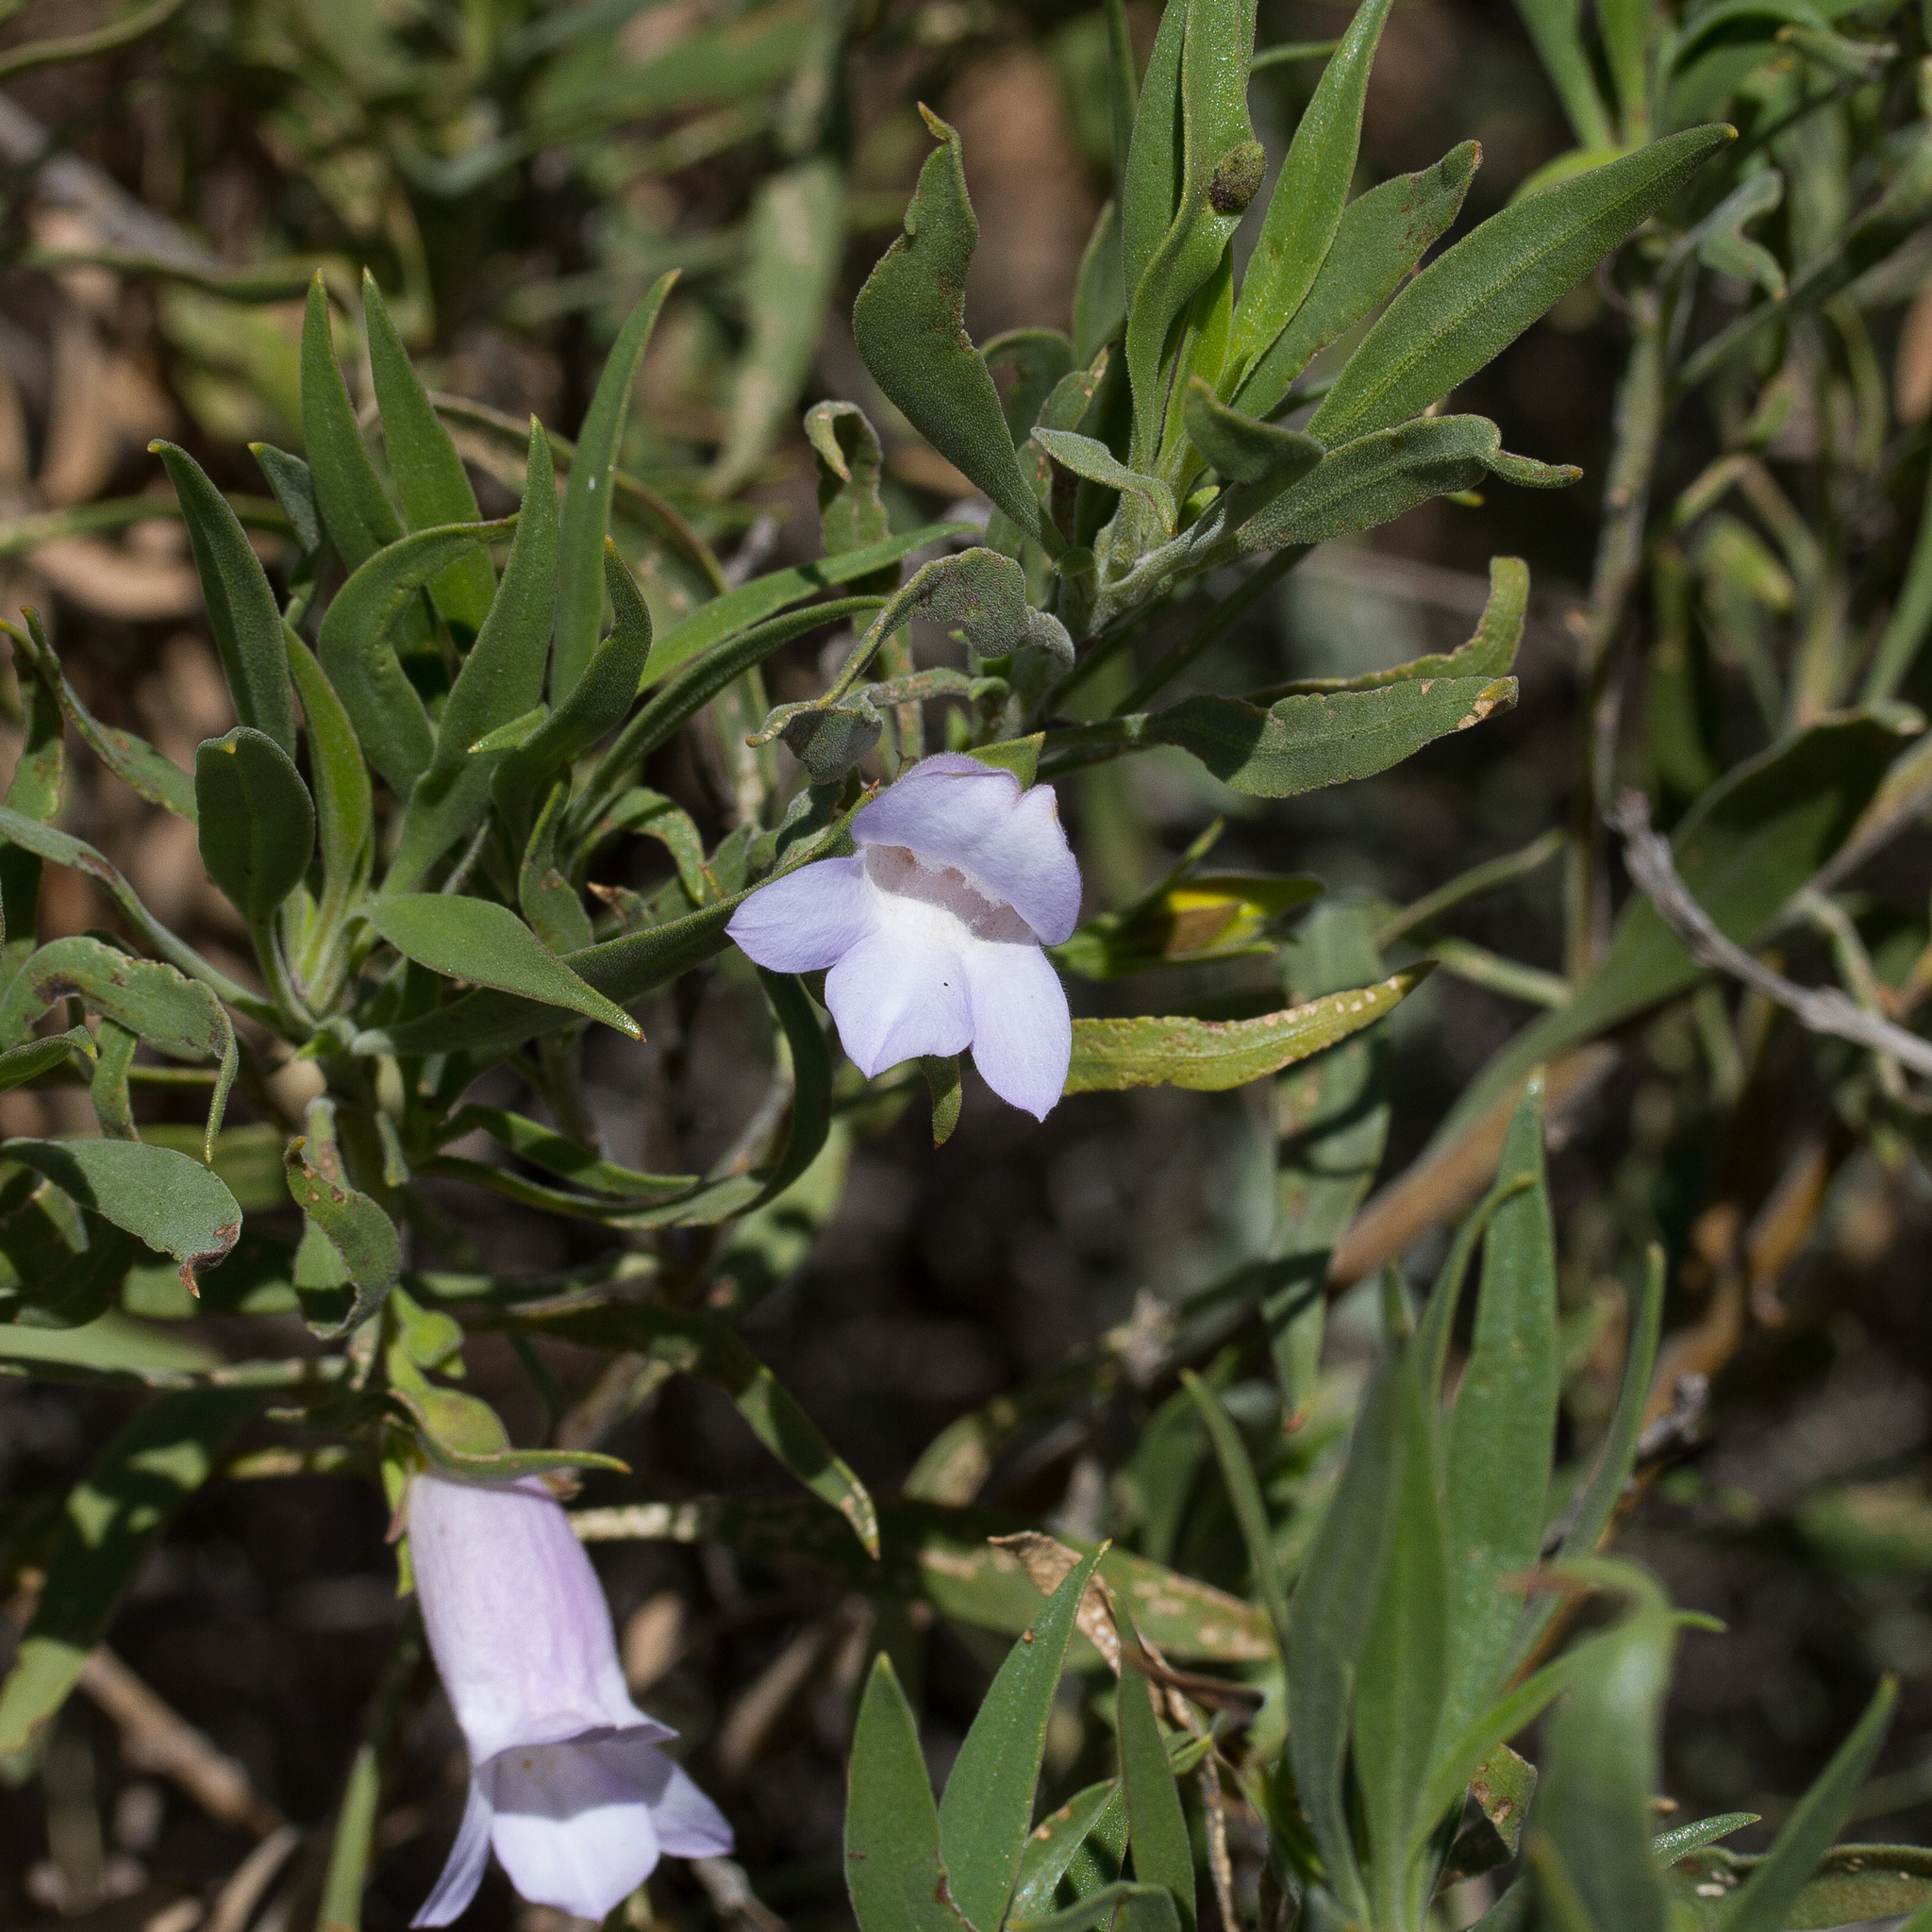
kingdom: Plantae
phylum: Tracheophyta
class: Magnoliopsida
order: Lamiales
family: Scrophulariaceae
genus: Eremophila
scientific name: Eremophila freelingii
